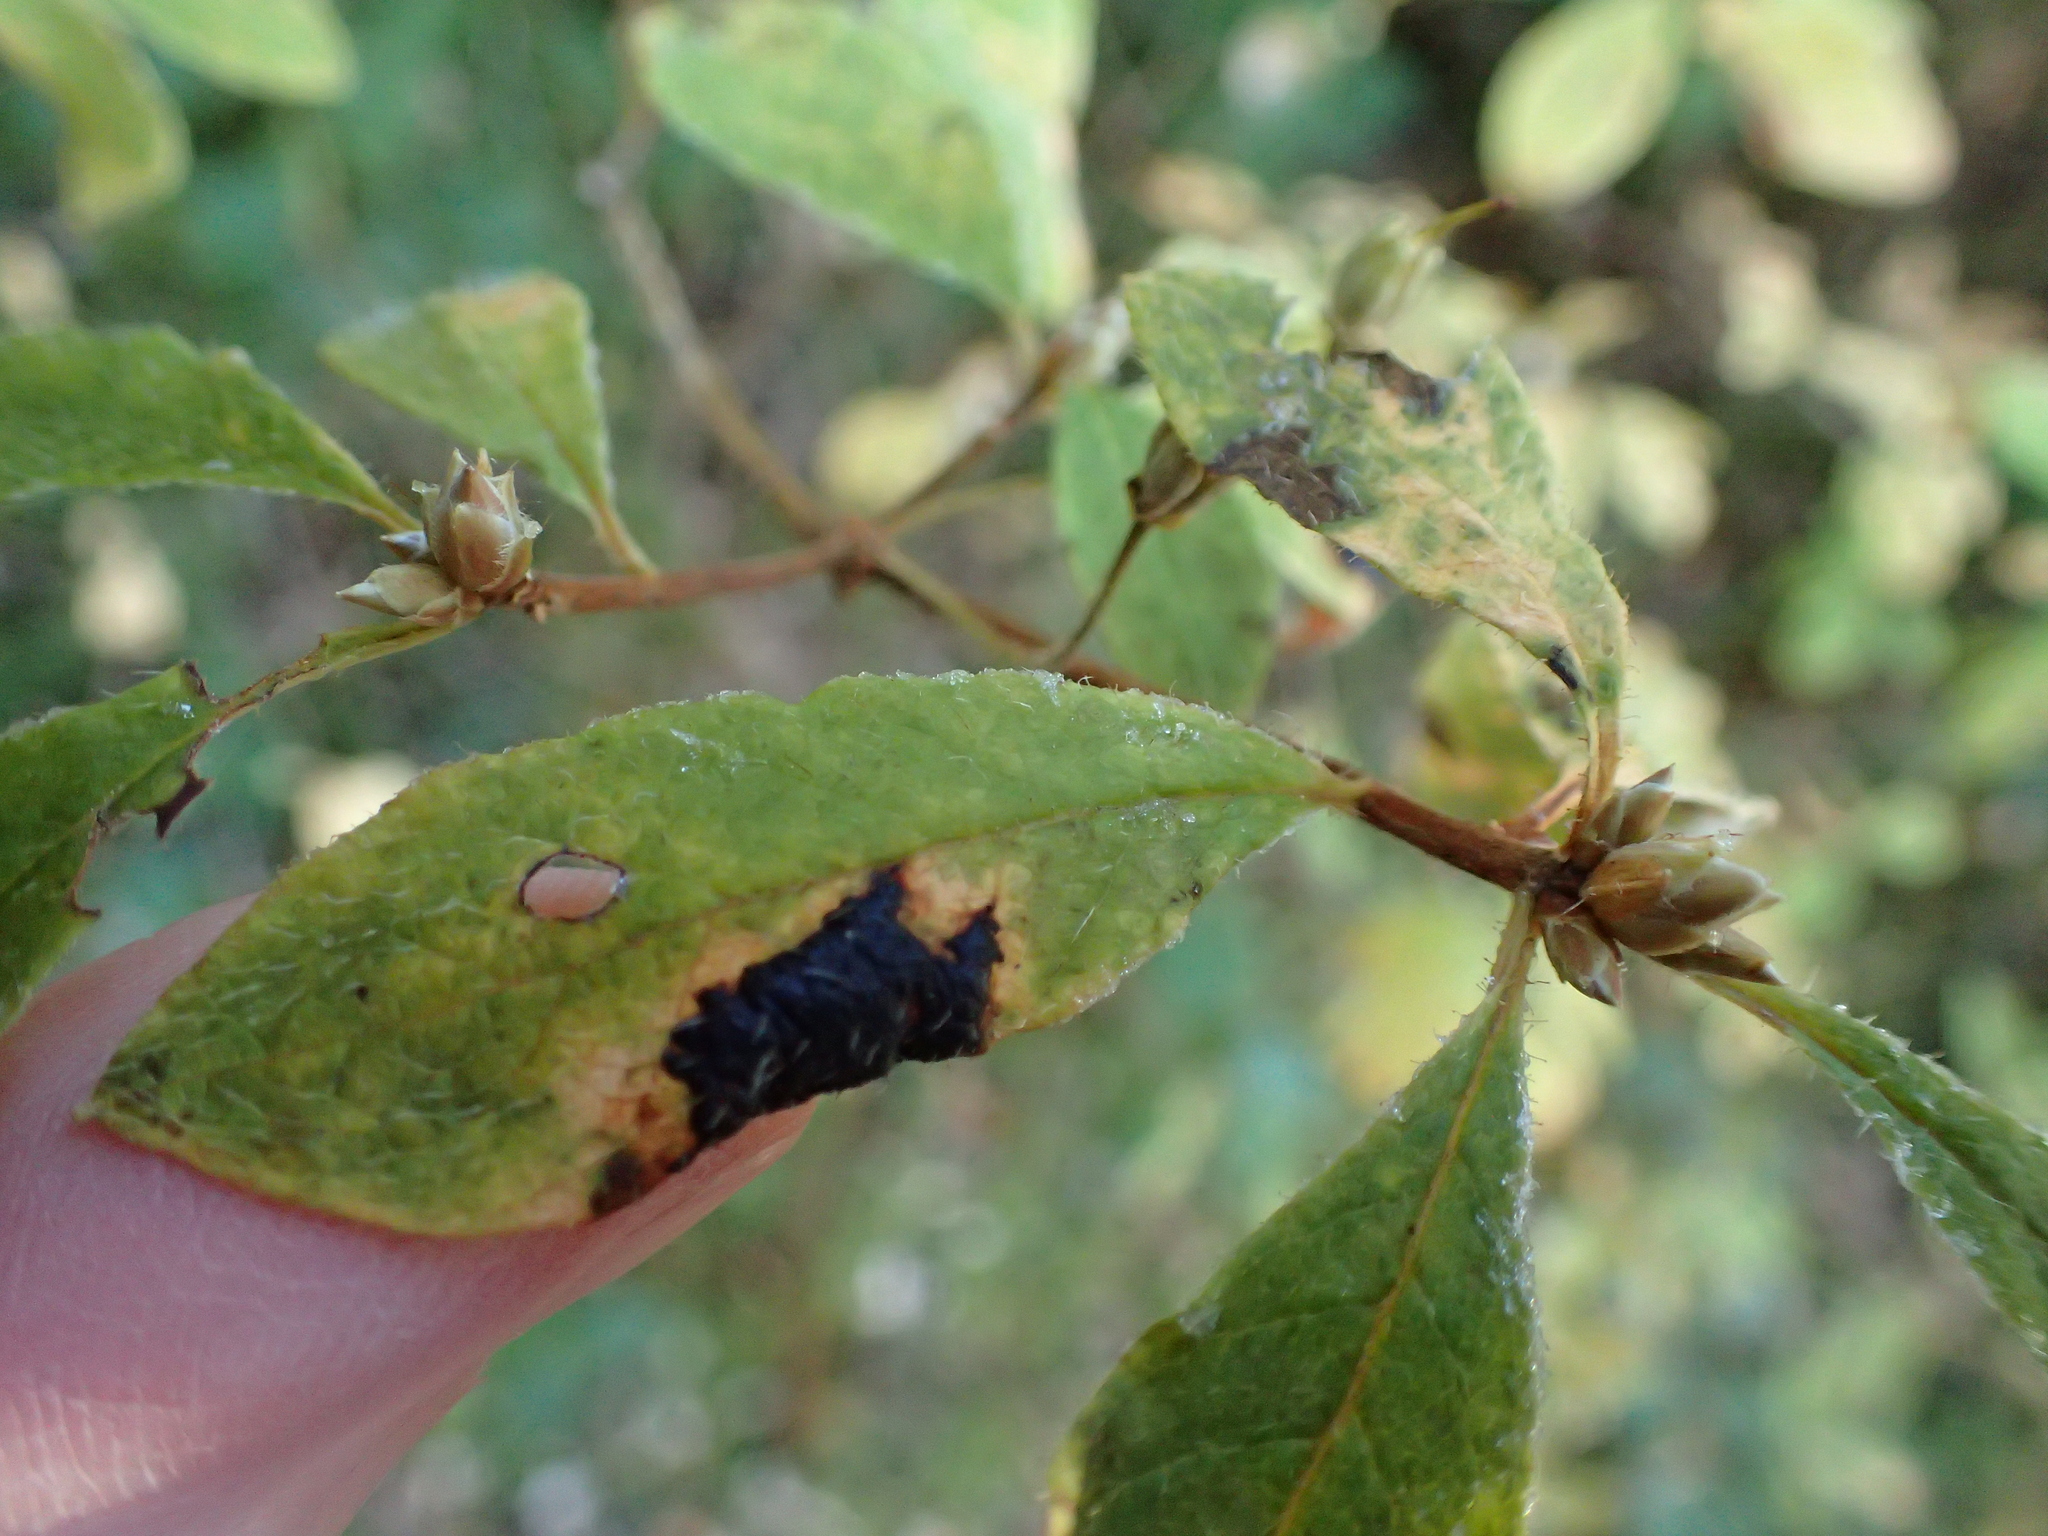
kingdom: Fungi
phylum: Ascomycota
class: Leotiomycetes
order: Rhytismatales
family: Rhytismataceae
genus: Rhytisma
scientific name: Rhytisma
